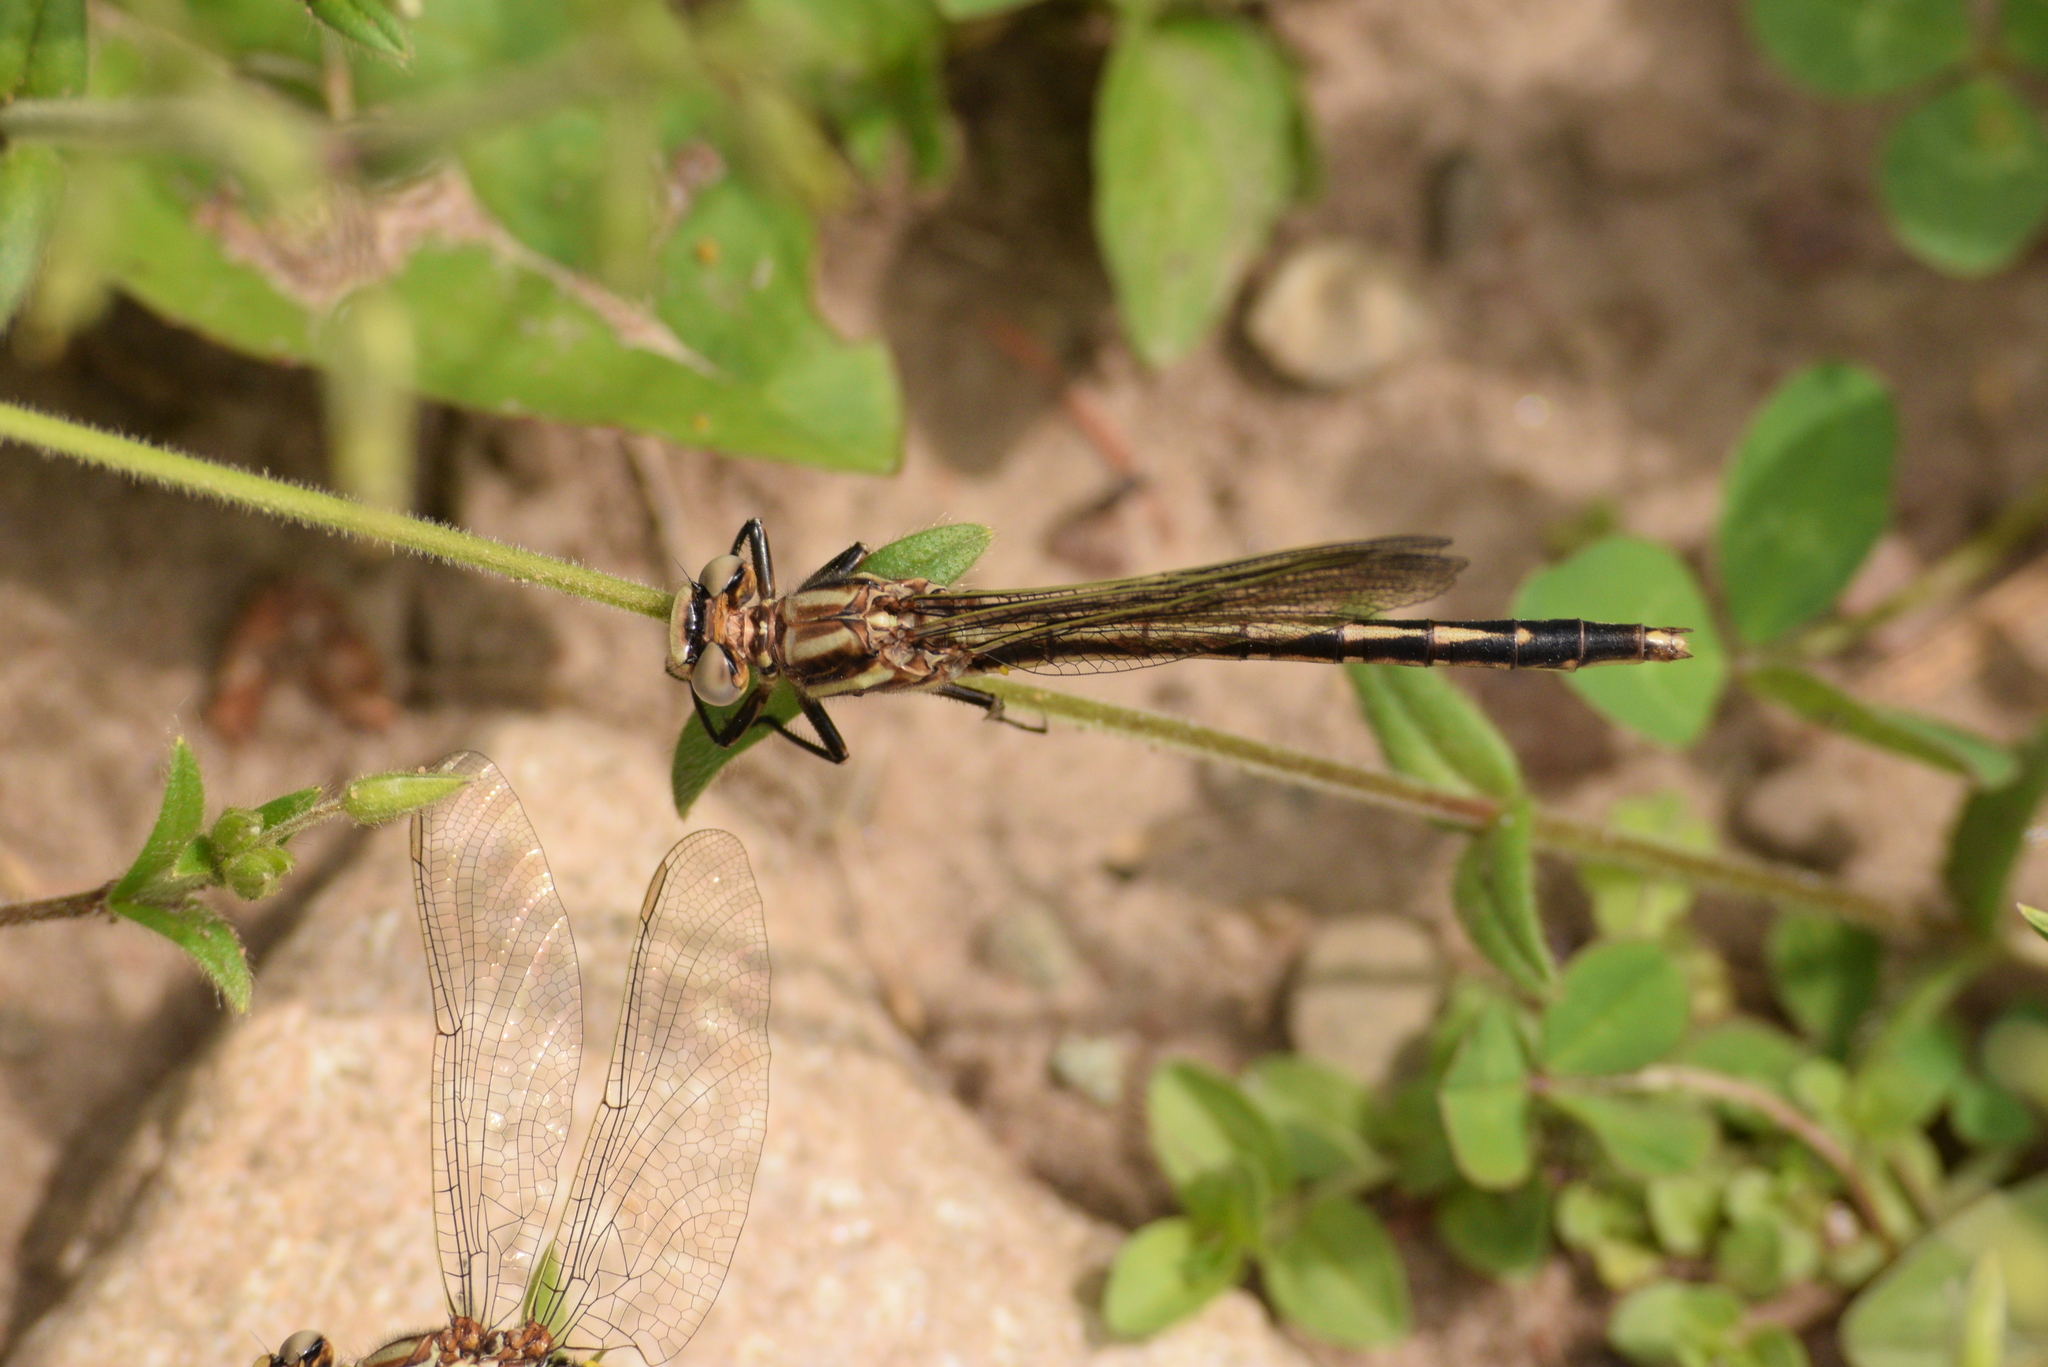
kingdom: Animalia
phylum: Arthropoda
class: Insecta
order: Odonata
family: Gomphidae
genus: Phanogomphus
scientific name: Phanogomphus spicatus
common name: Dusky clubtail
